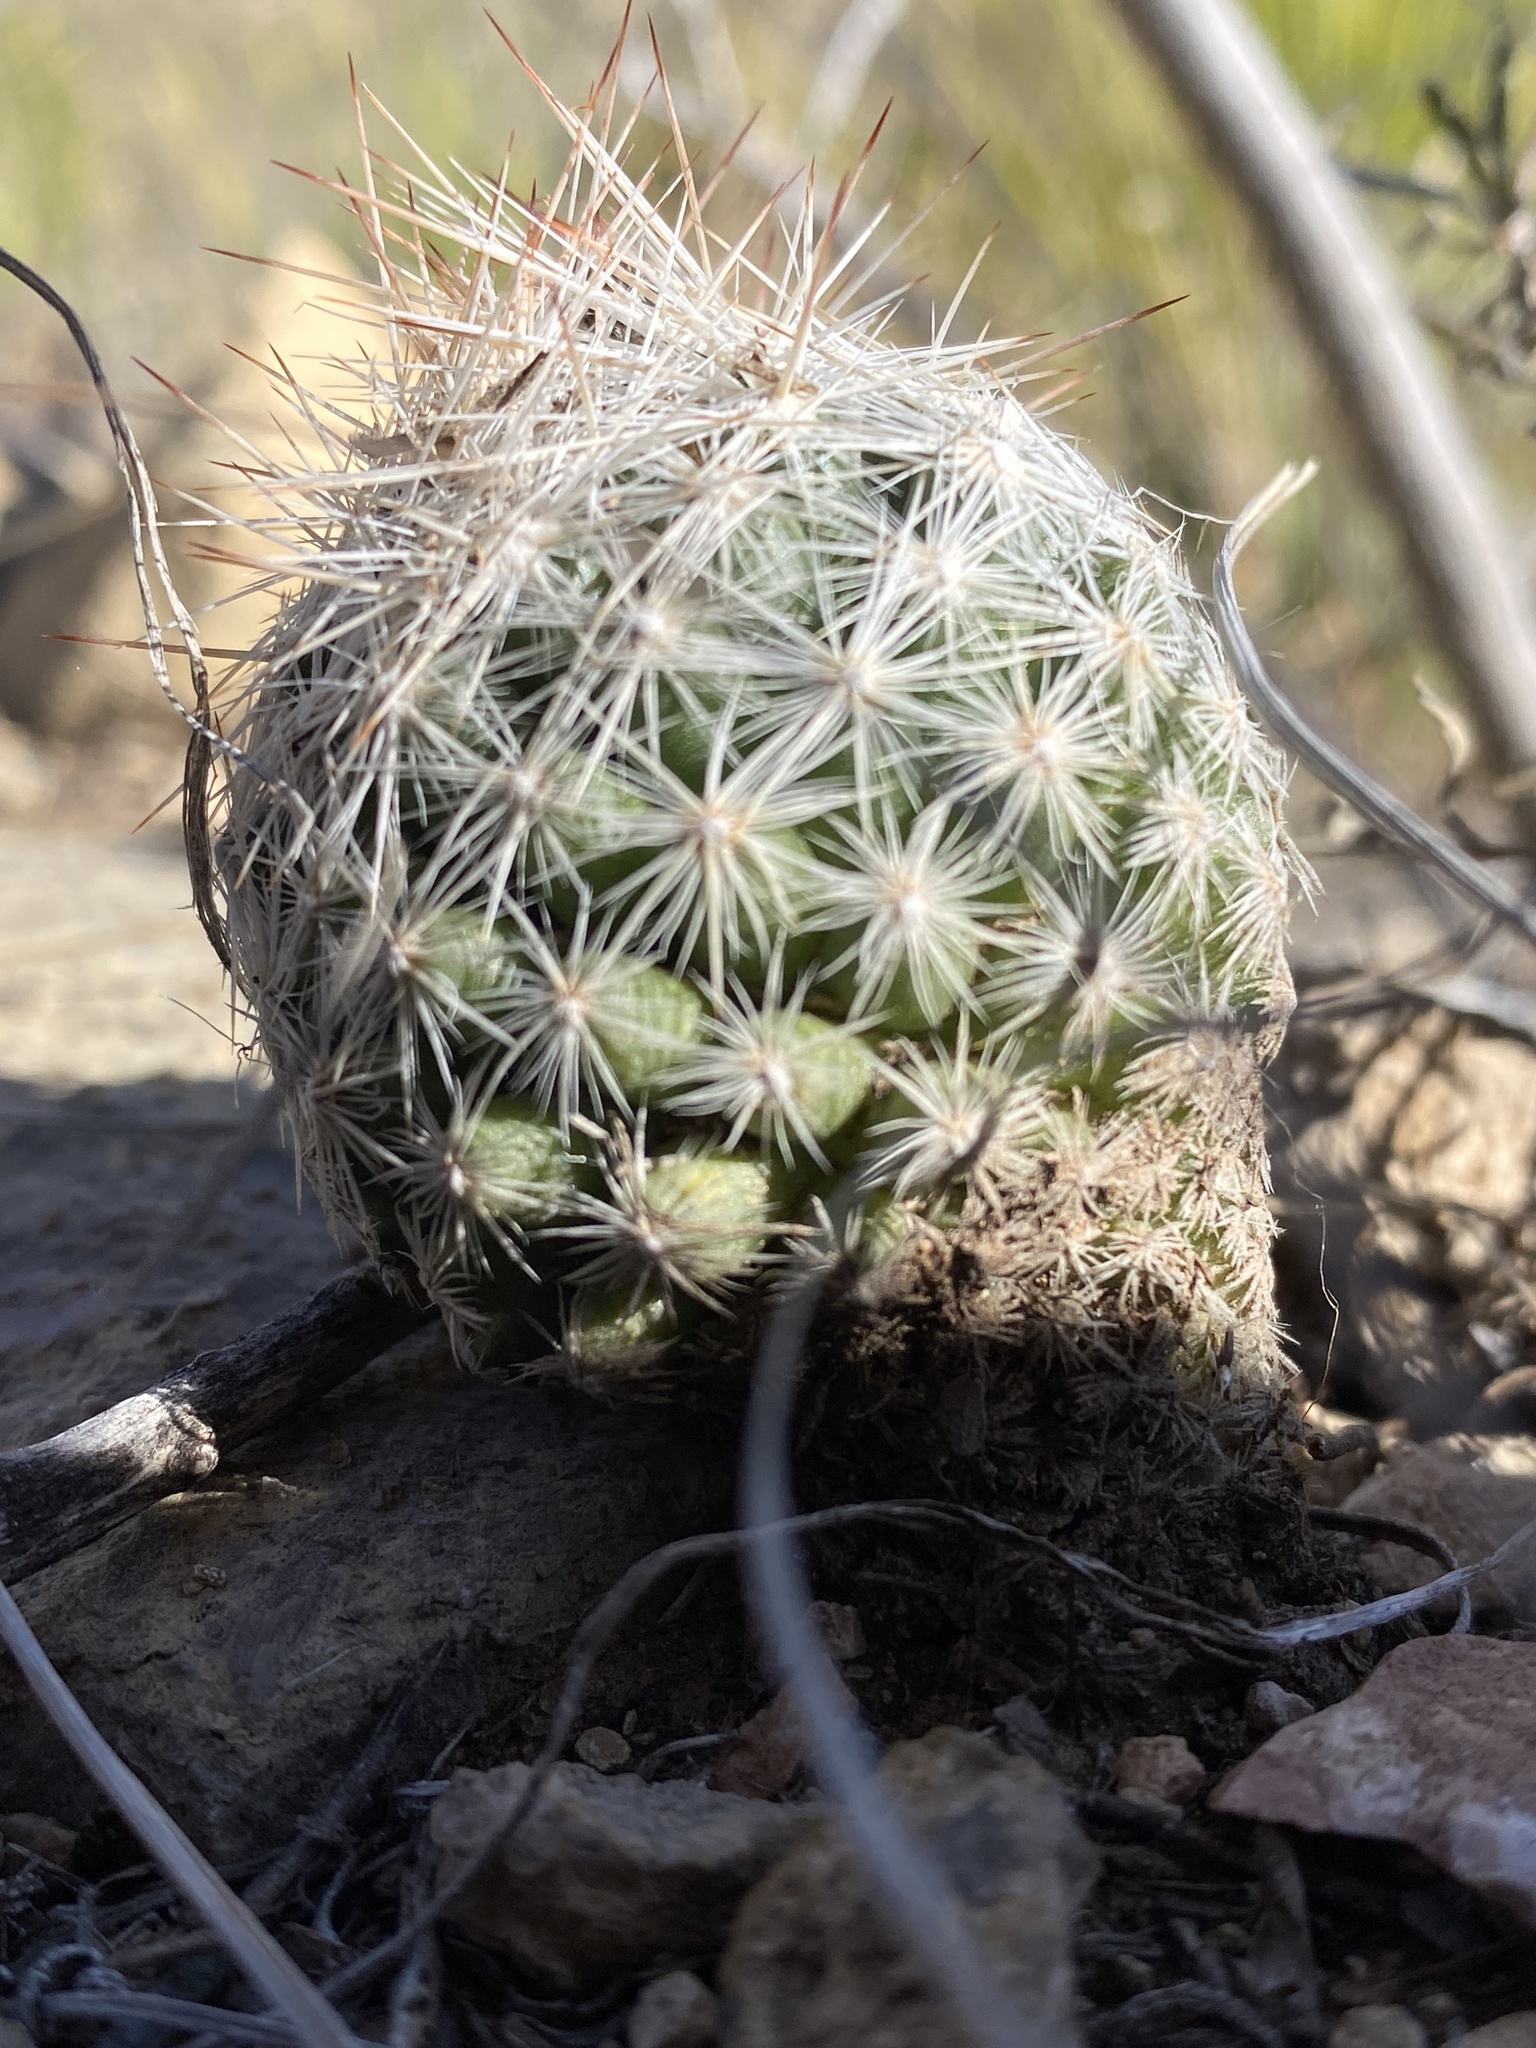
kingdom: Plantae
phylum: Tracheophyta
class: Magnoliopsida
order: Caryophyllales
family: Cactaceae
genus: Pelecyphora
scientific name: Pelecyphora vivipara
